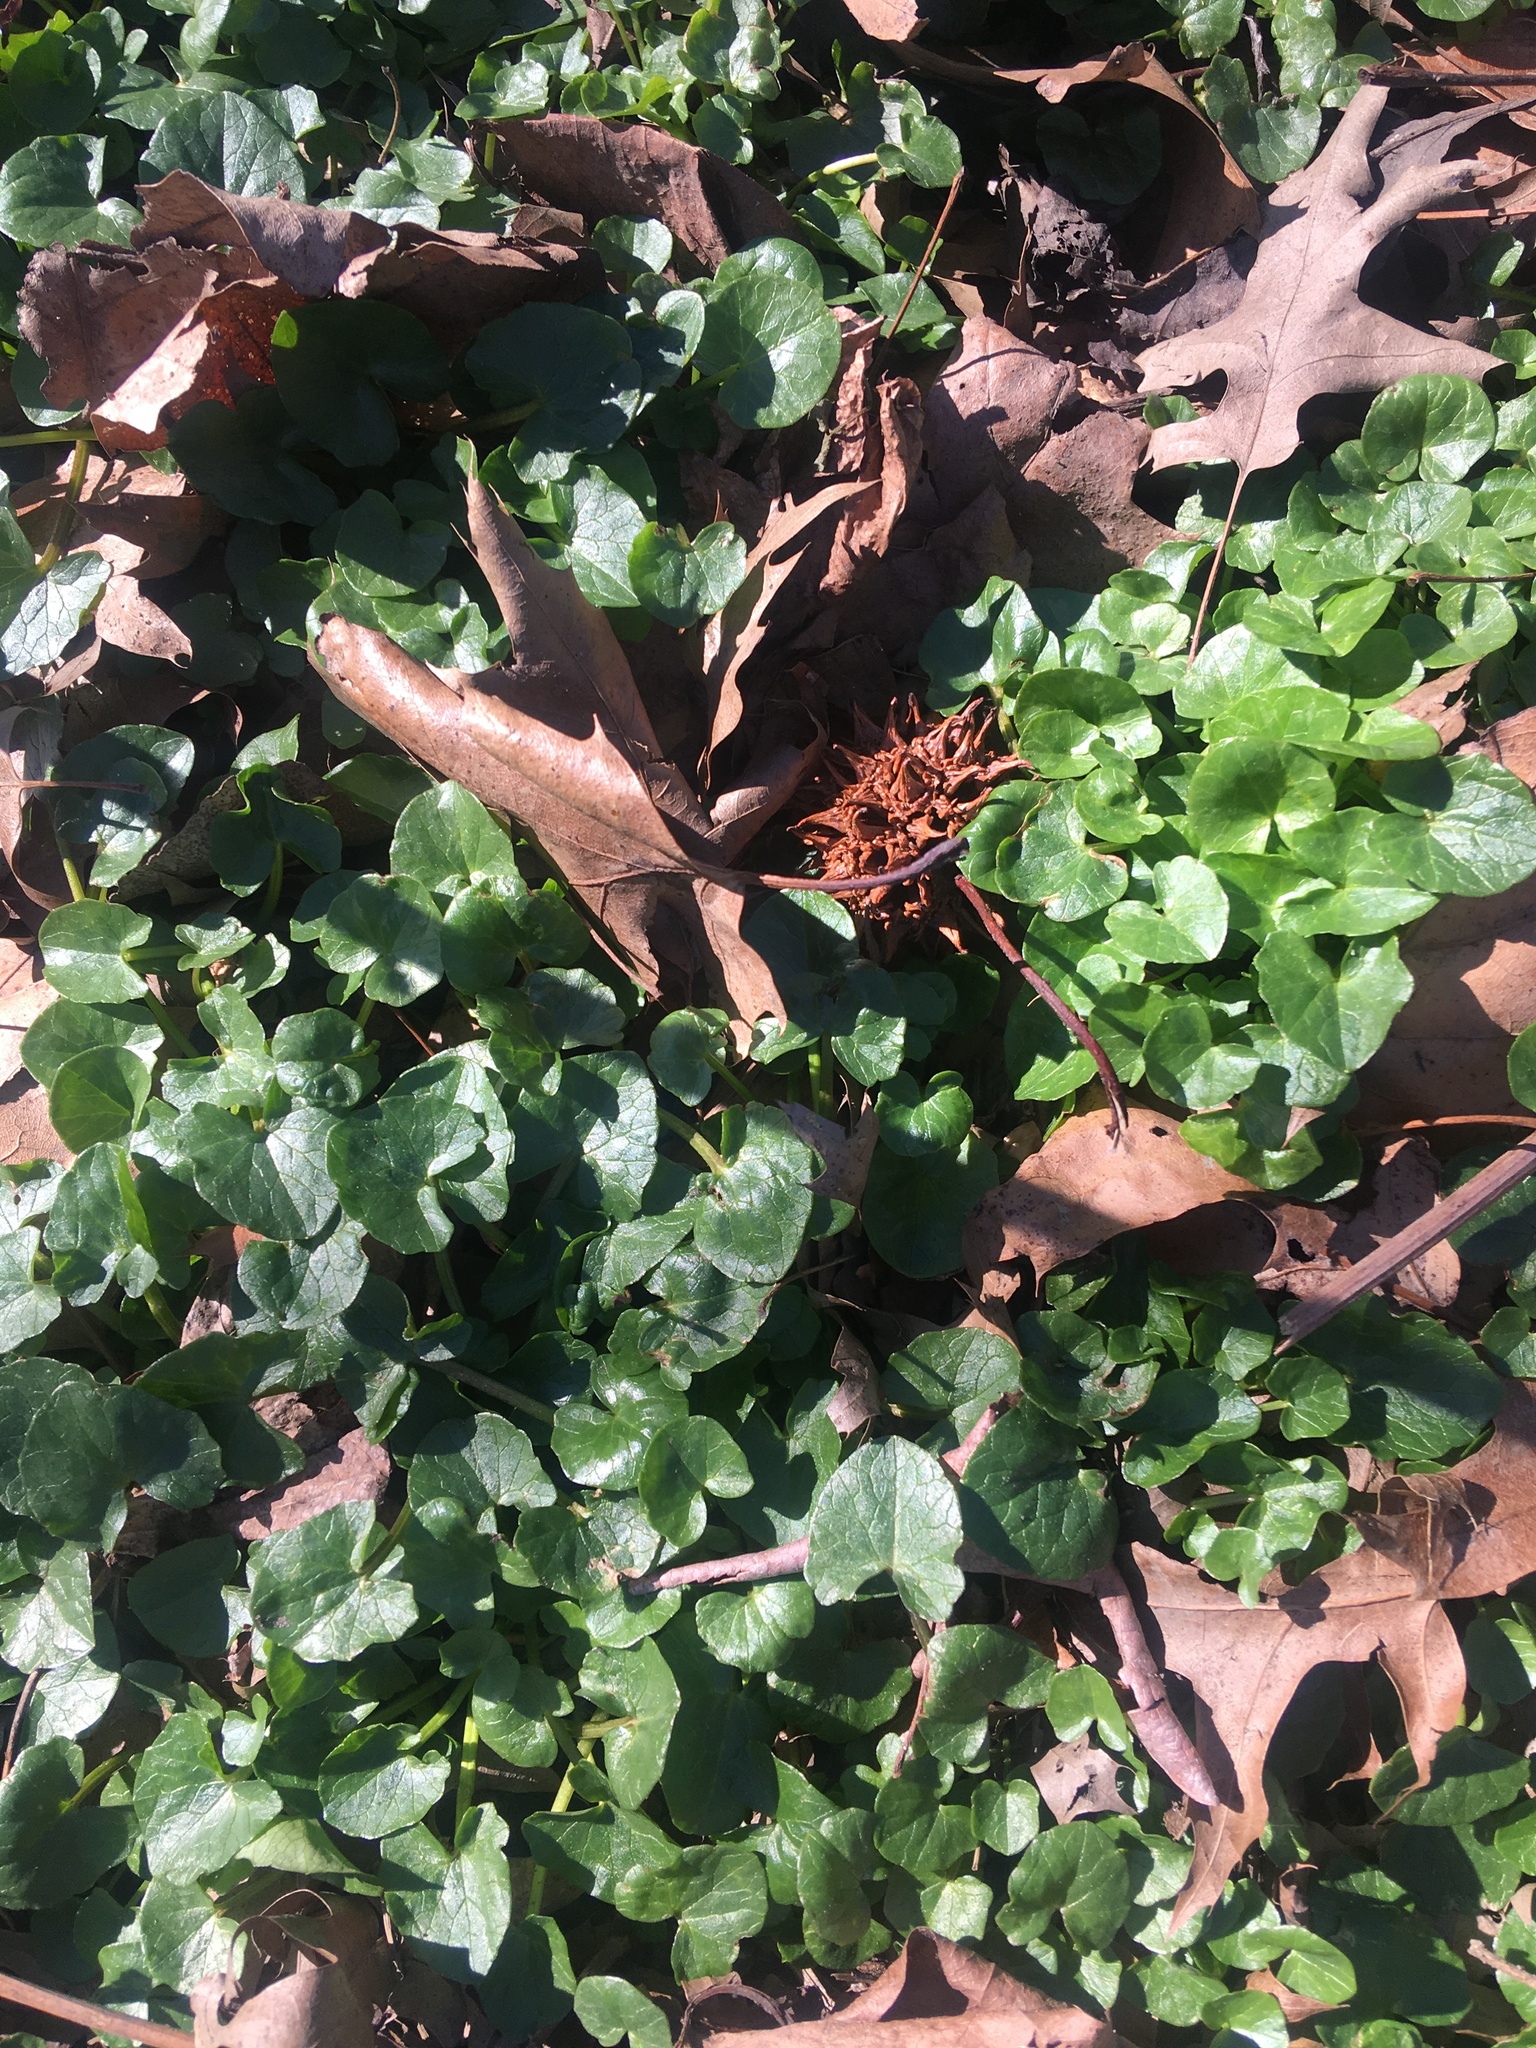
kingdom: Plantae
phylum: Tracheophyta
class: Magnoliopsida
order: Ranunculales
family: Ranunculaceae
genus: Ficaria
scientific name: Ficaria verna
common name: Lesser celandine
